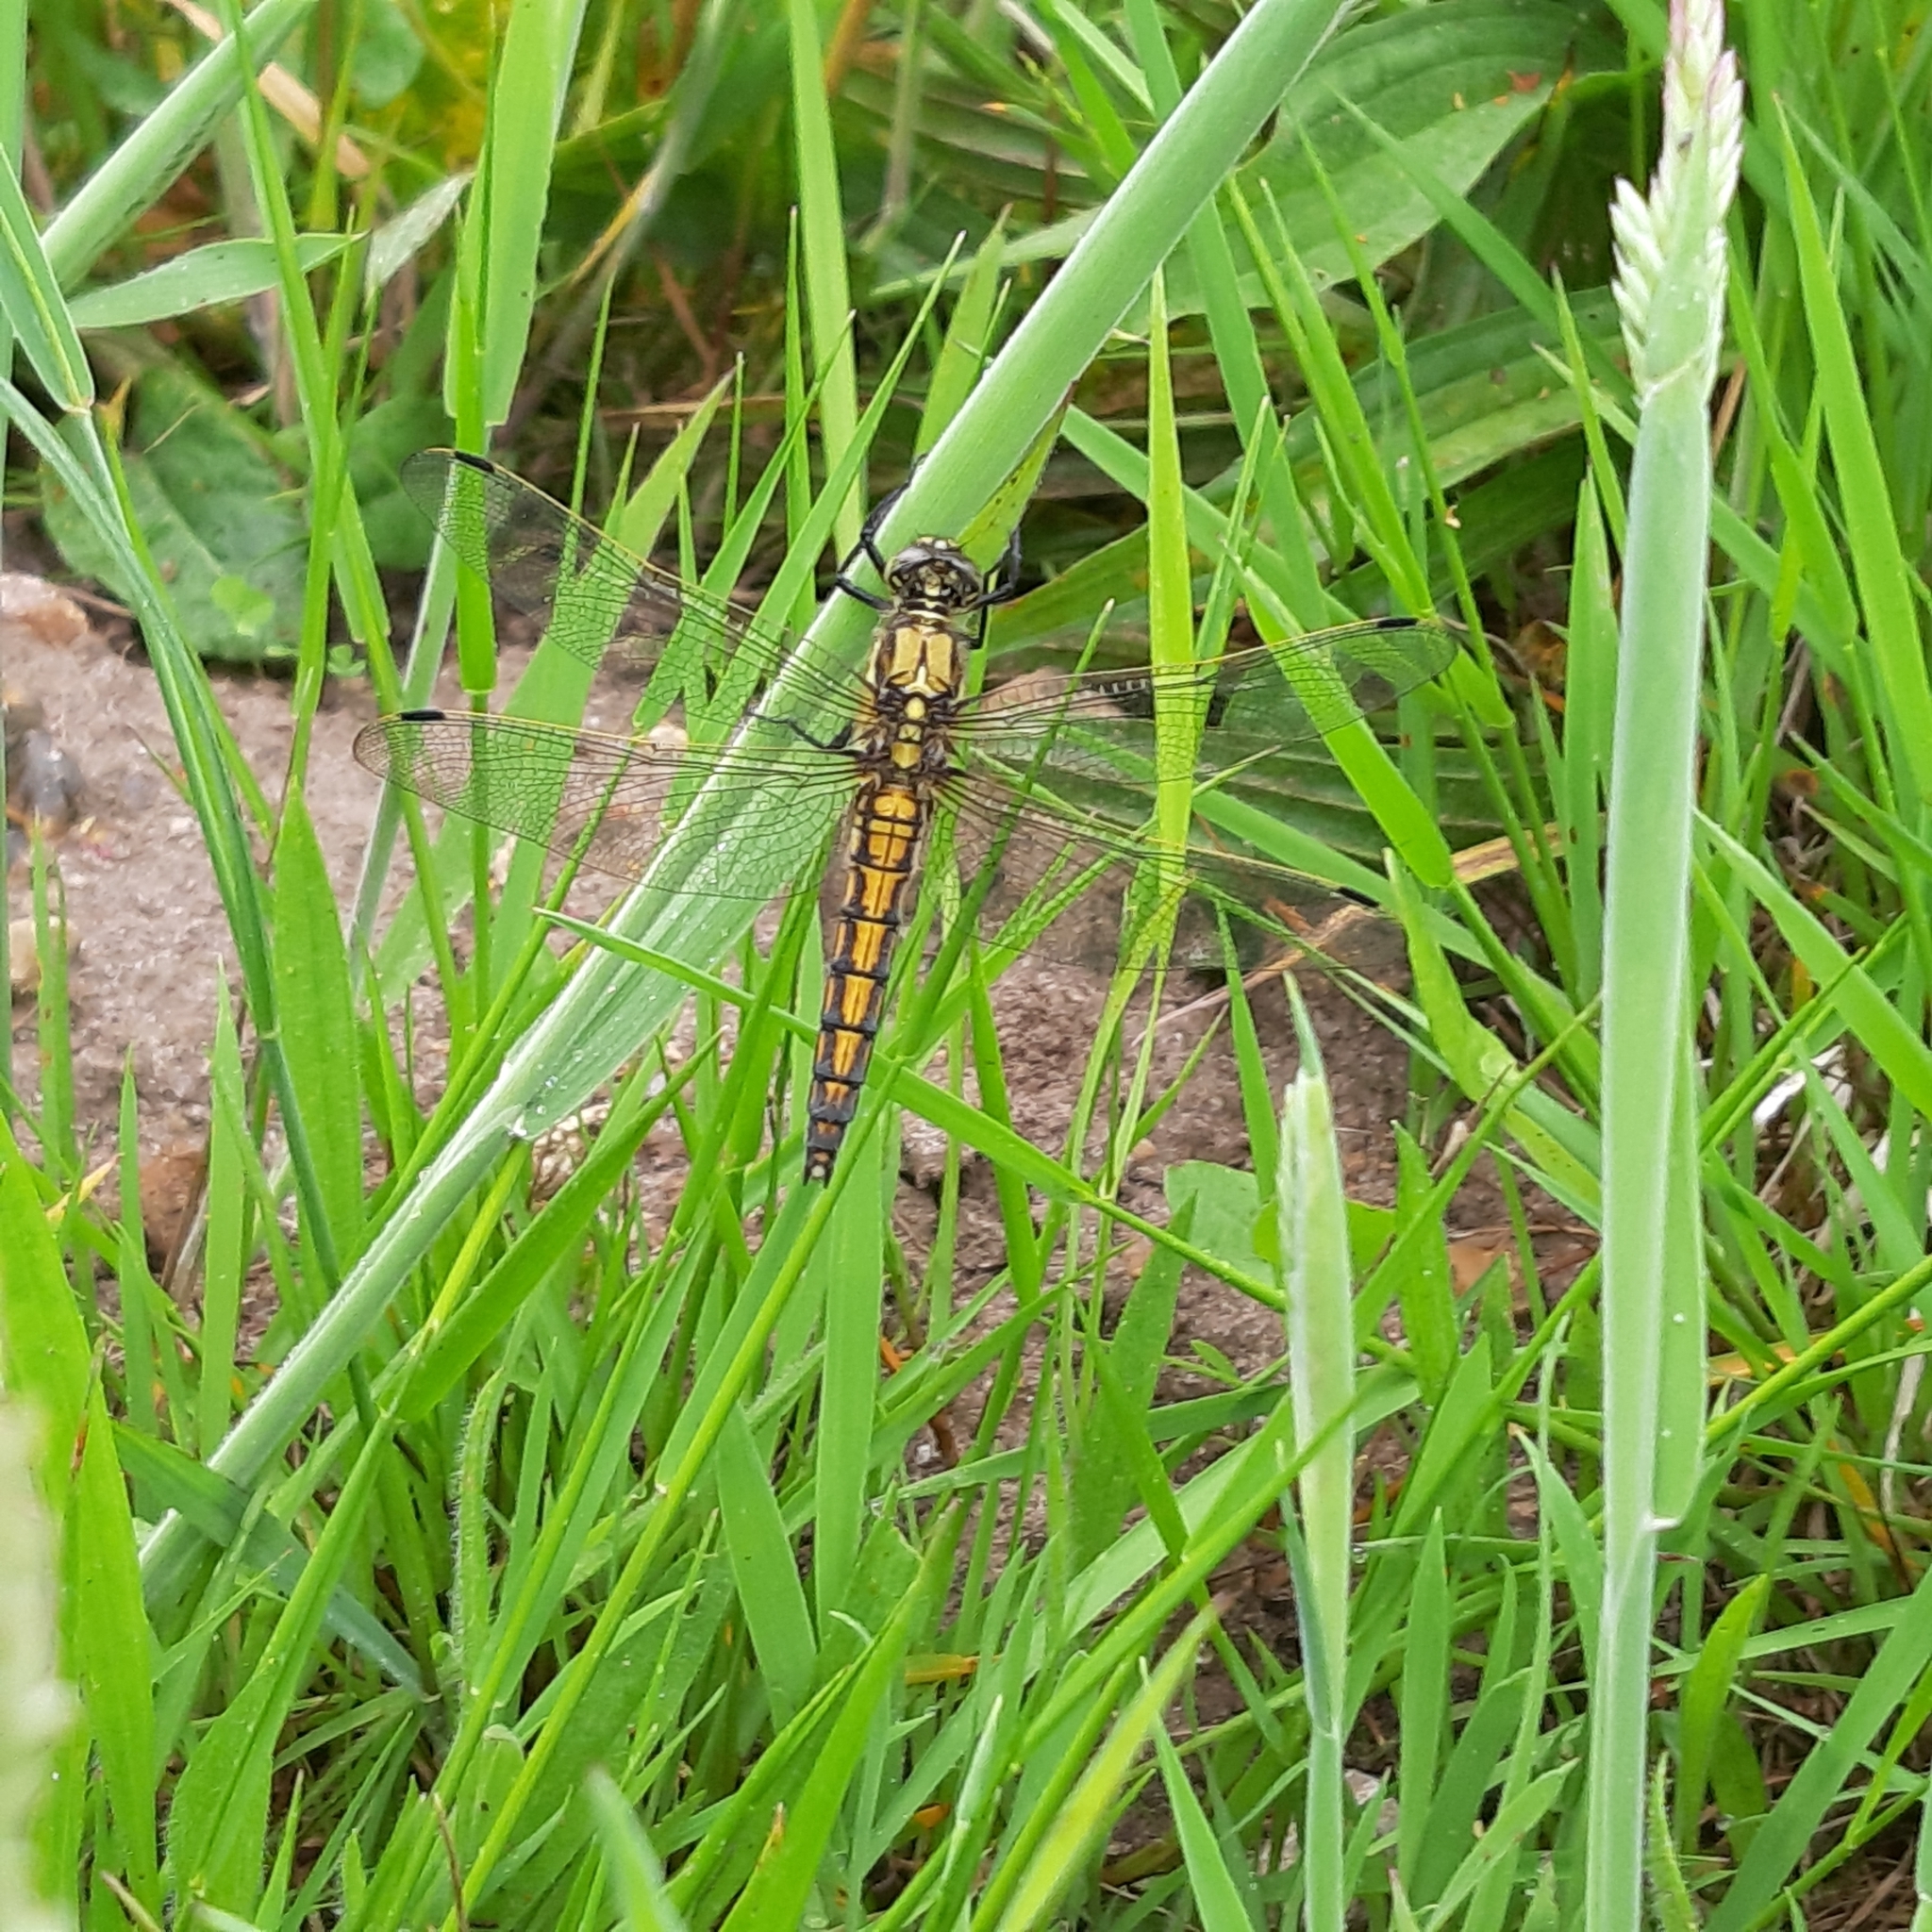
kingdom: Animalia
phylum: Arthropoda
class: Insecta
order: Odonata
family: Libellulidae
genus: Orthetrum
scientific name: Orthetrum cancellatum
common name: Black-tailed skimmer
